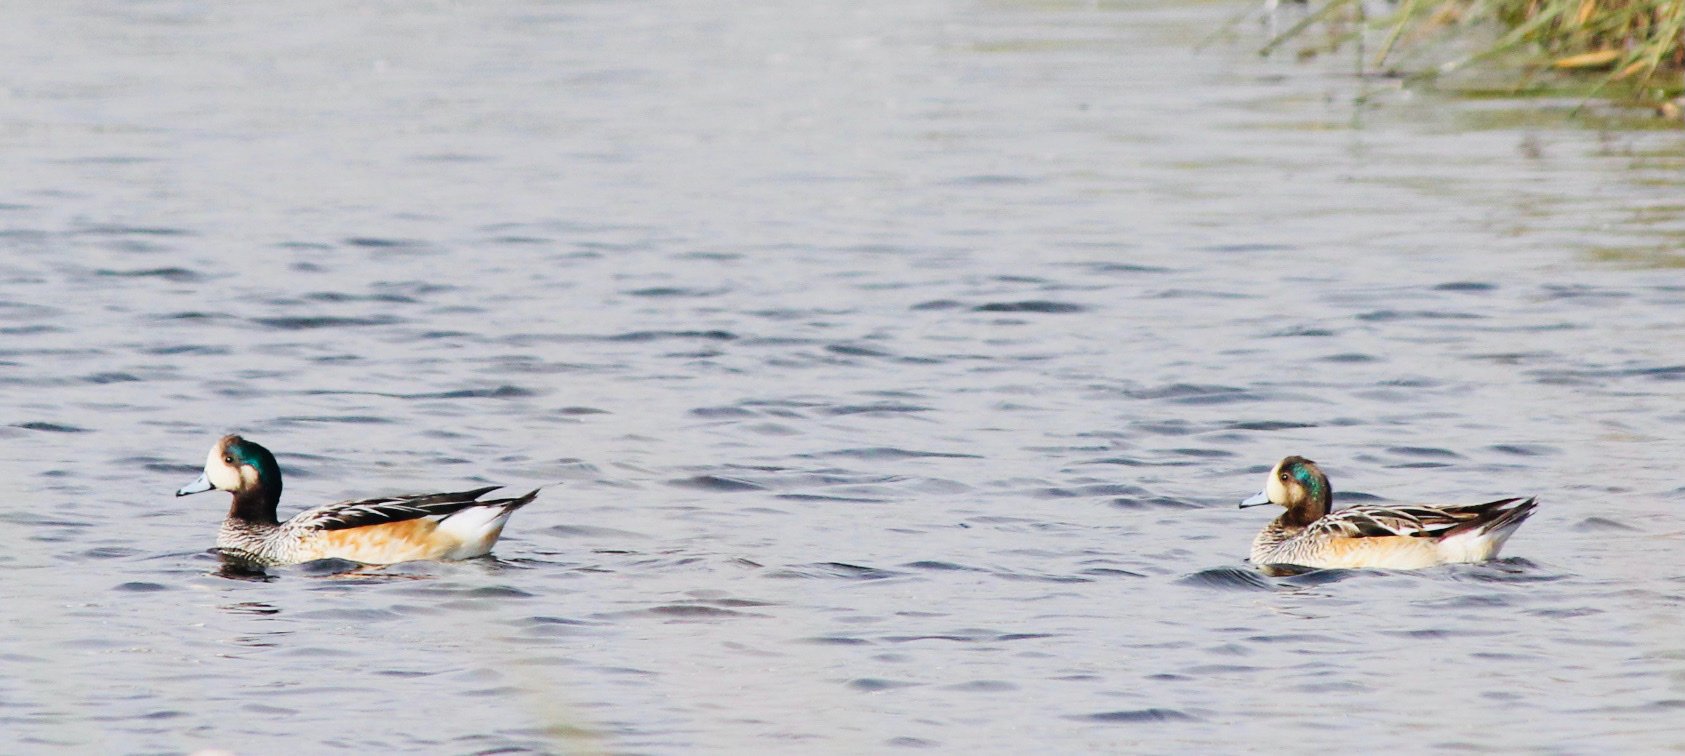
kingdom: Animalia
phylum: Chordata
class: Aves
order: Anseriformes
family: Anatidae
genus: Mareca
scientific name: Mareca sibilatrix
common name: Chiloe wigeon
